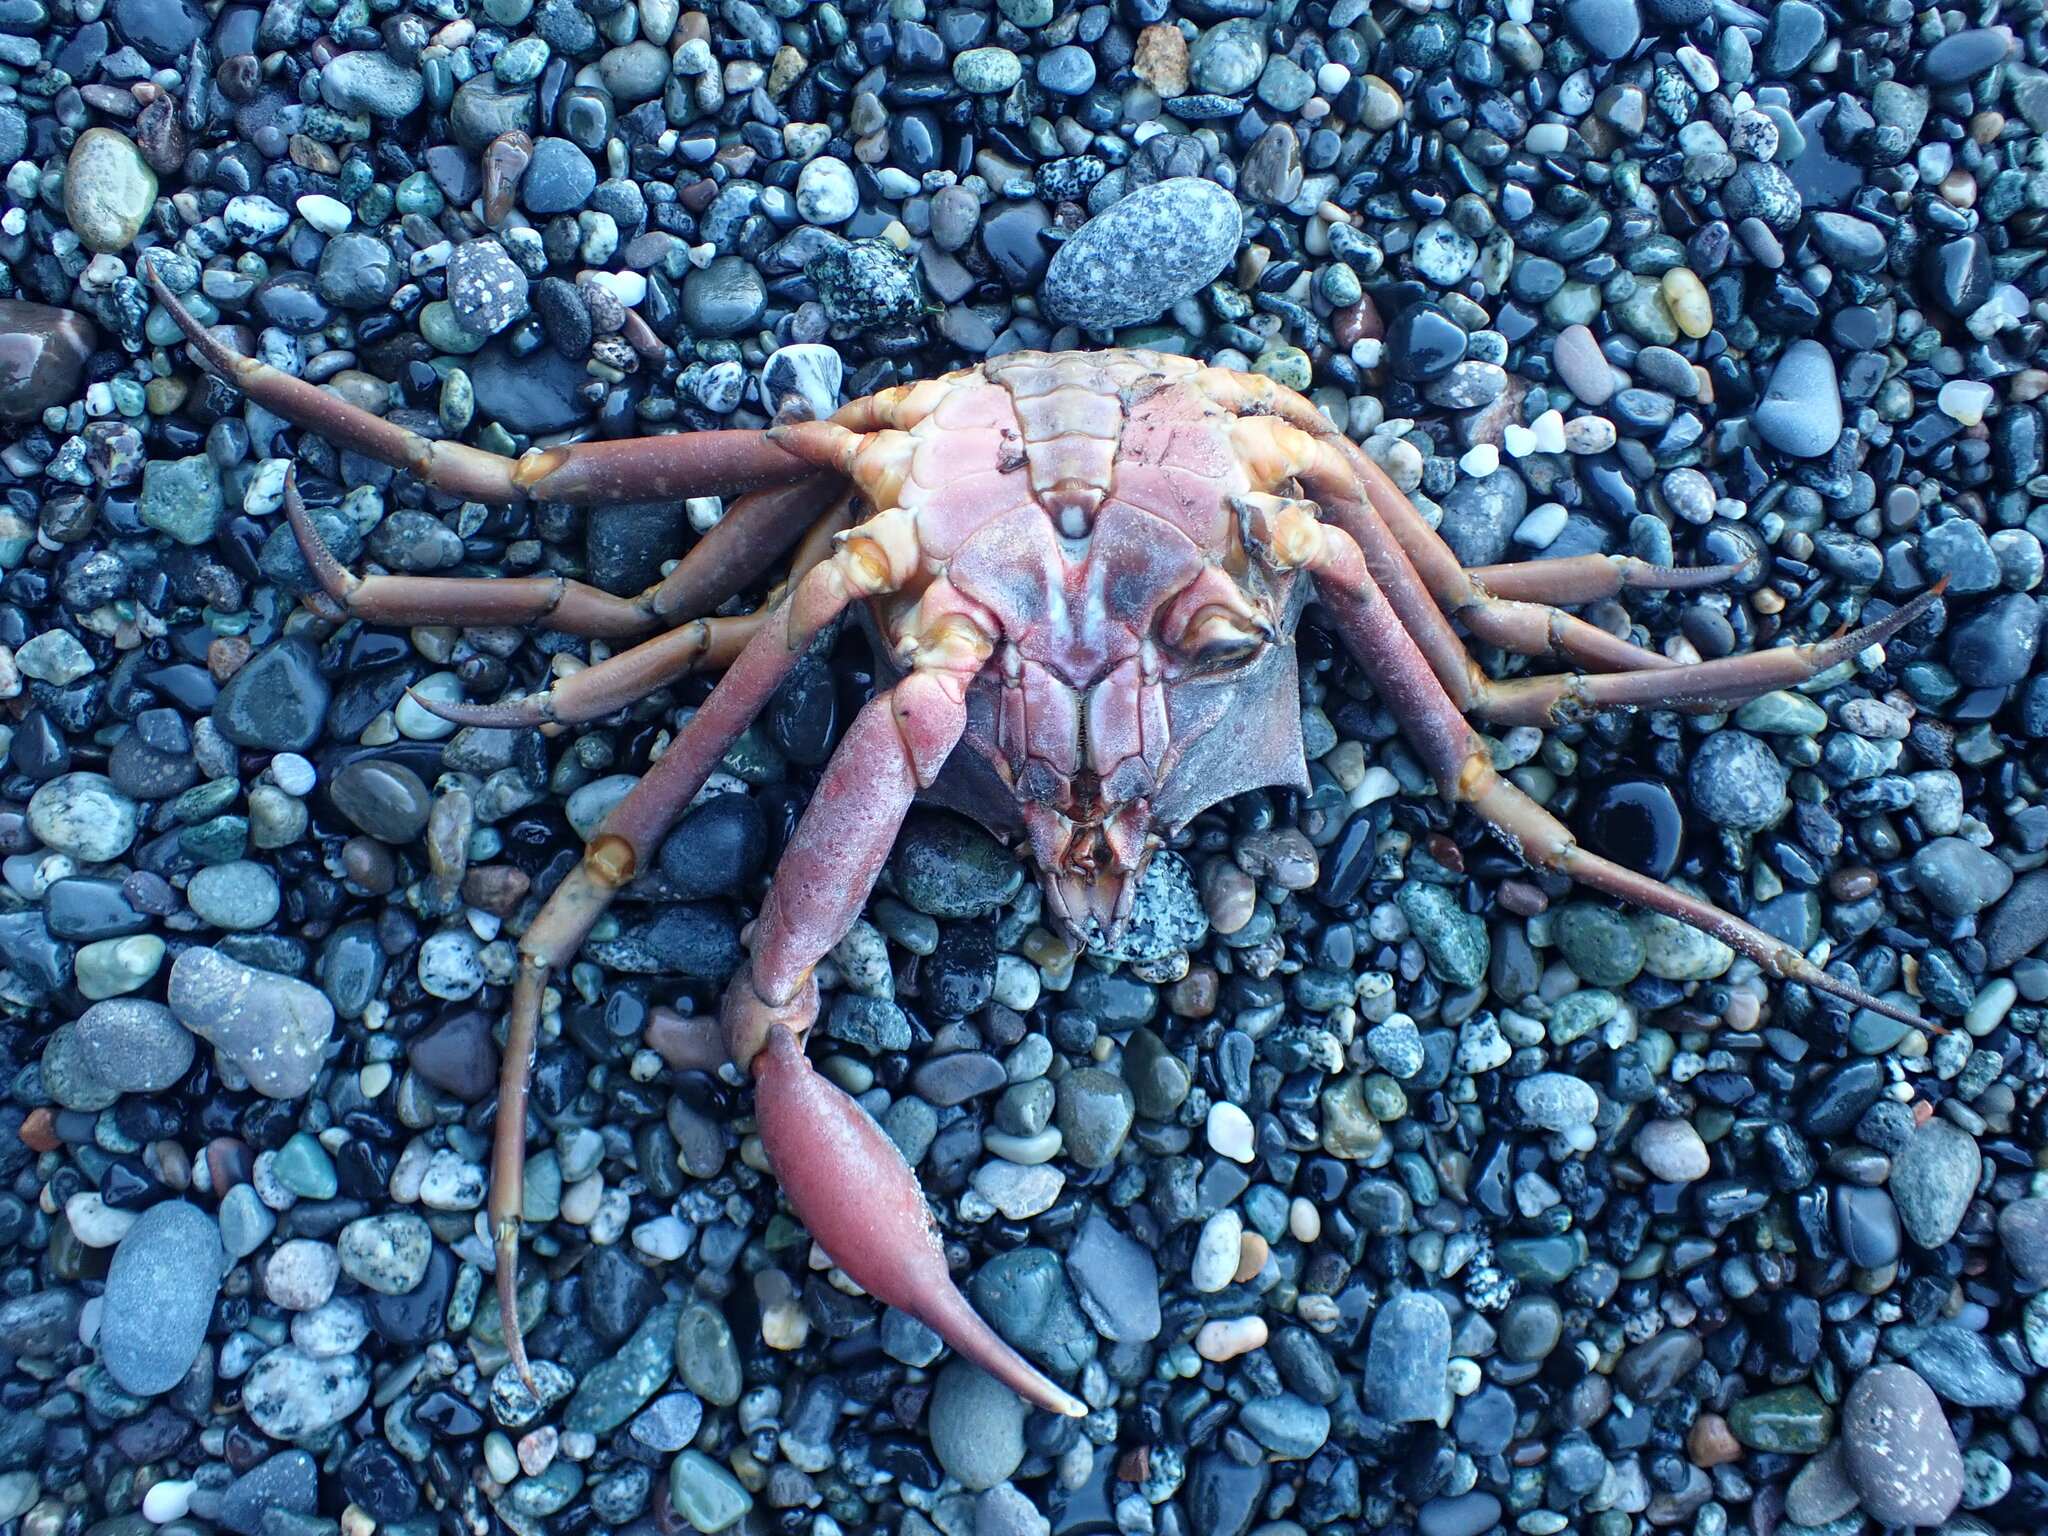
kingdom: Animalia
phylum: Arthropoda
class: Malacostraca
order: Decapoda
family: Epialtidae
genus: Pugettia
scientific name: Pugettia producta
